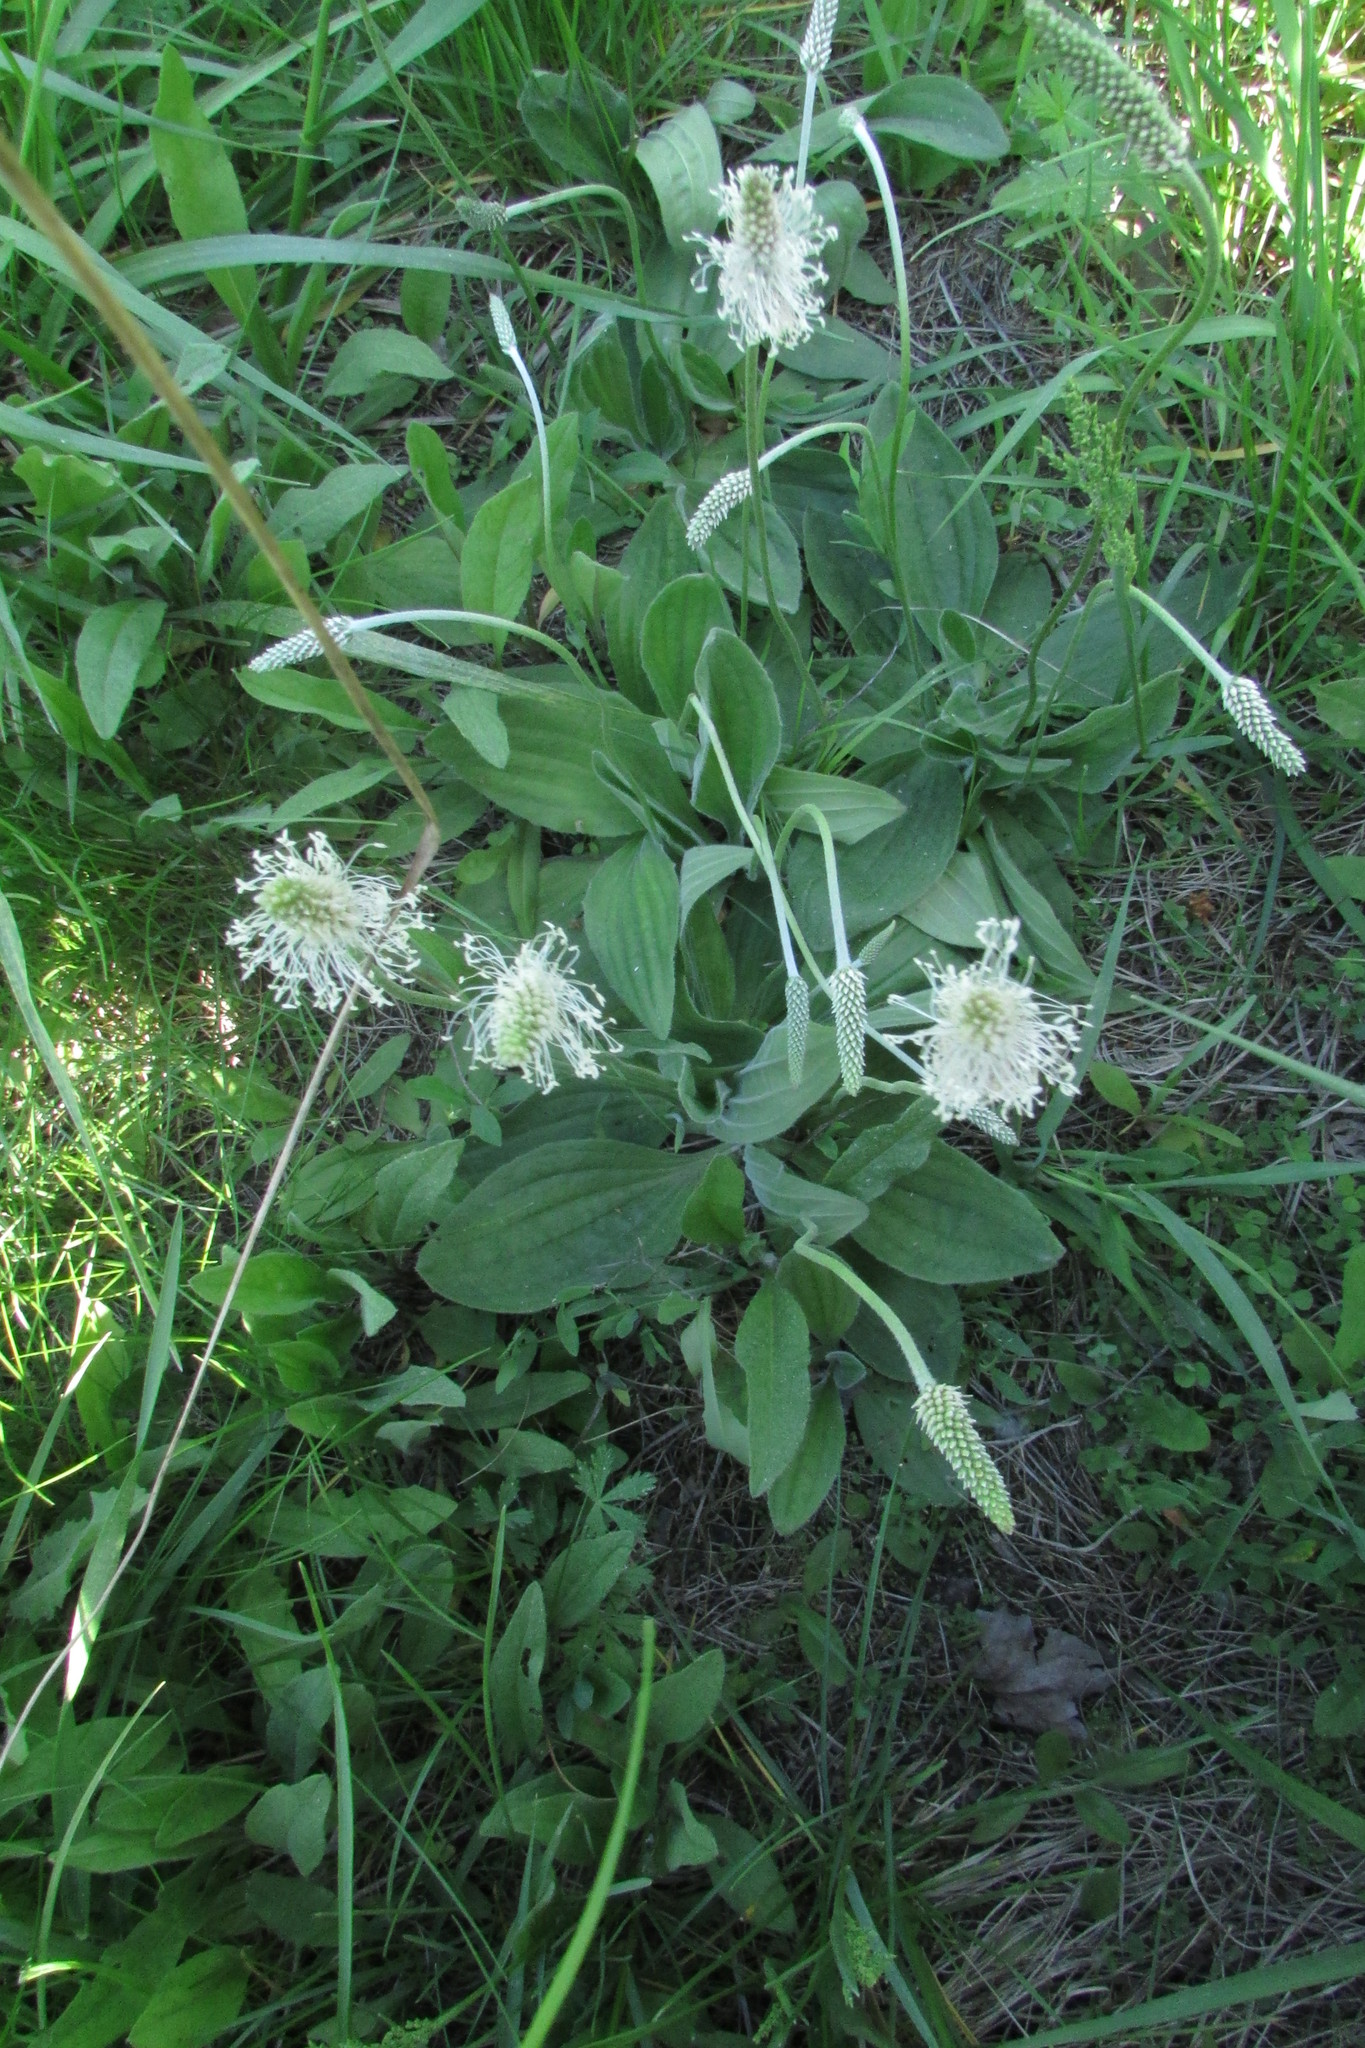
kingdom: Plantae
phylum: Tracheophyta
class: Magnoliopsida
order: Lamiales
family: Plantaginaceae
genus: Plantago
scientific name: Plantago media
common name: Hoary plantain
